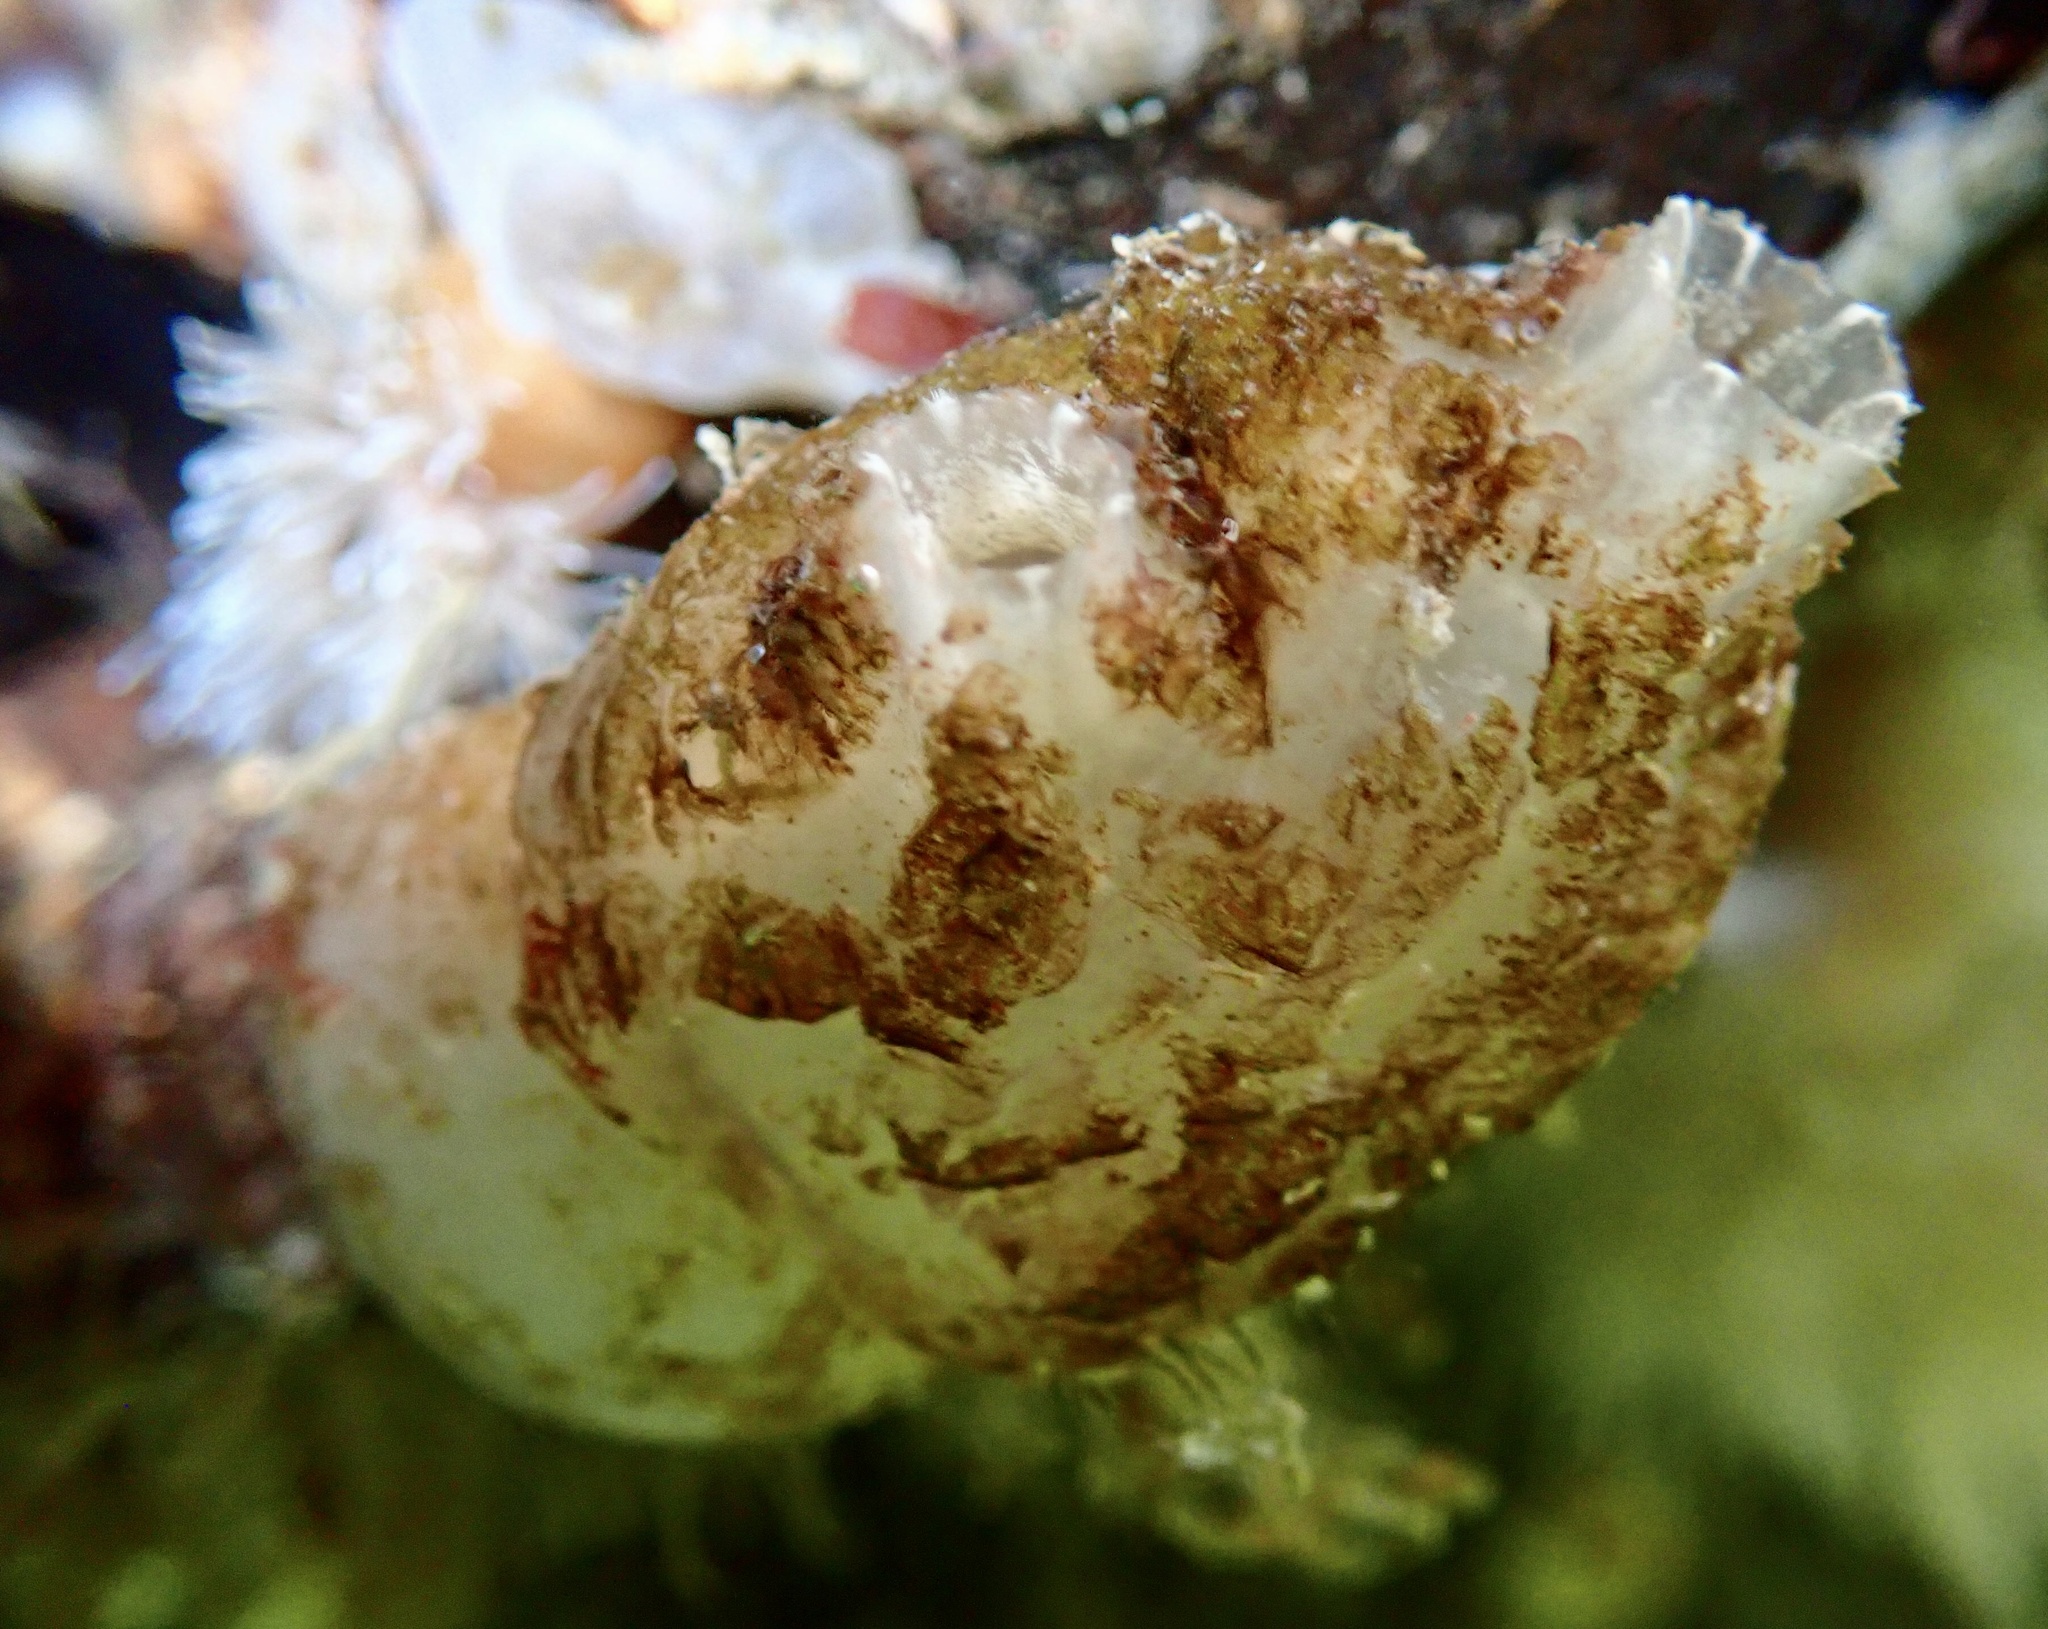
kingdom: Animalia
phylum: Chordata
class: Ascidiacea
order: Phlebobranchia
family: Ascidiidae
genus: Ascidiella
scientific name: Ascidiella aspersa
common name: Dirty sea-squirt
